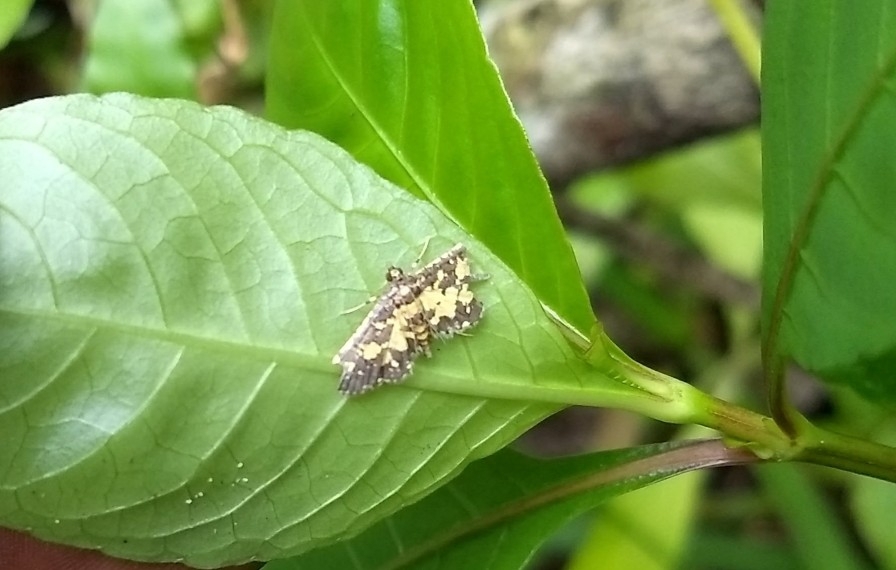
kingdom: Animalia
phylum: Arthropoda
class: Insecta
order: Lepidoptera
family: Crambidae
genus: Eurrhyparodes
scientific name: Eurrhyparodes bracteolalis
